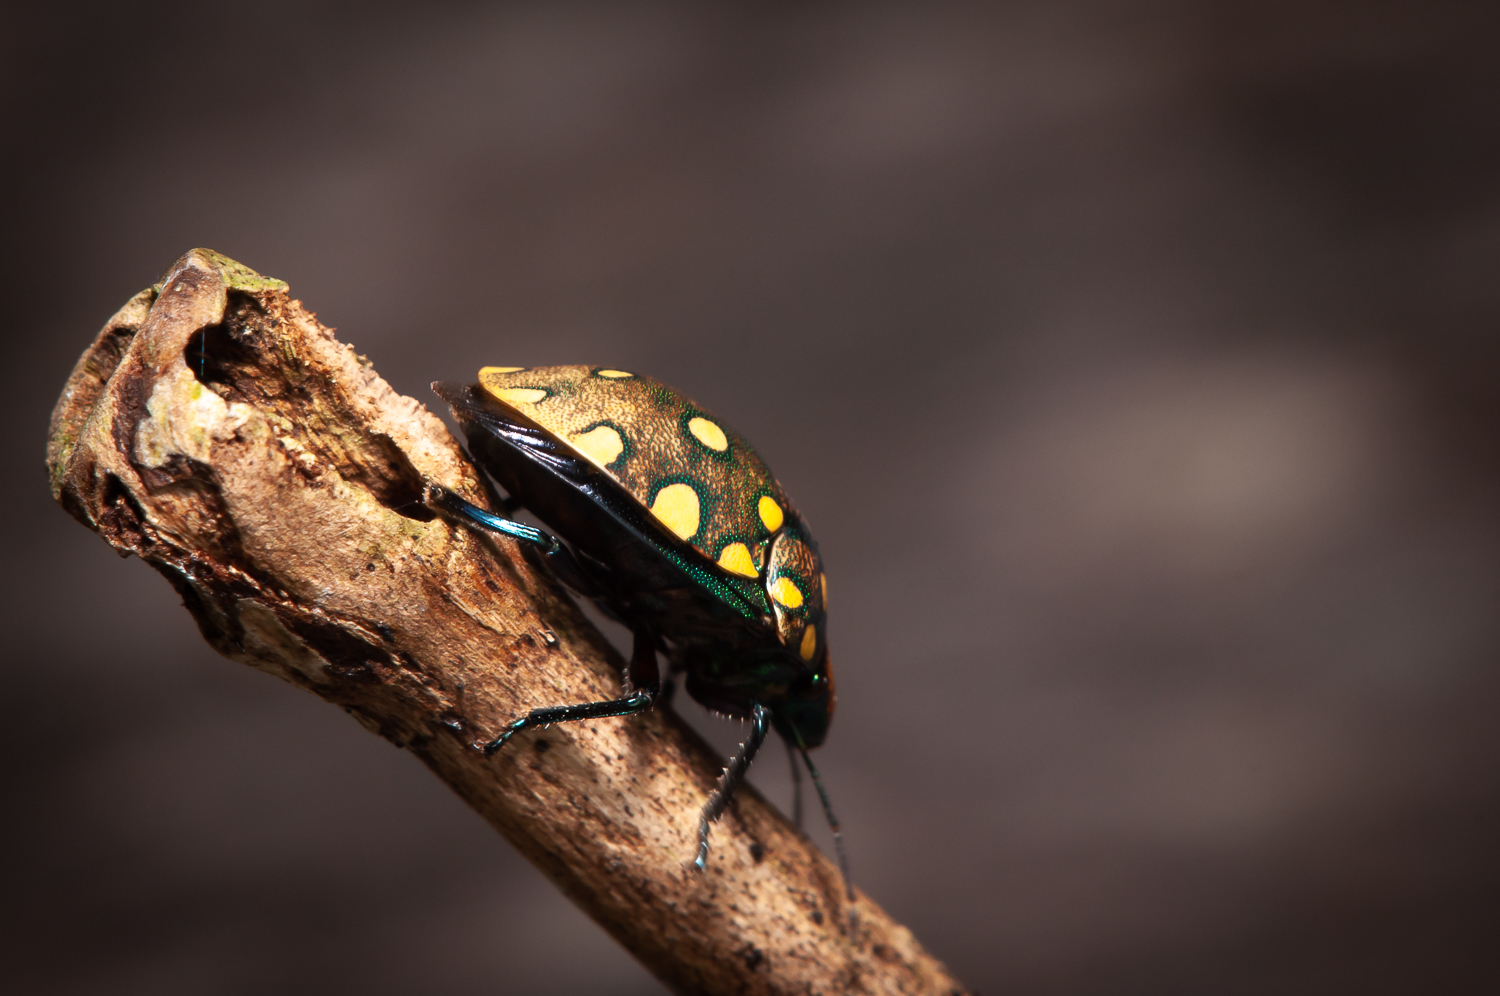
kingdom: Animalia
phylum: Arthropoda
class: Insecta
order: Hemiptera
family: Scutelleridae
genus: Pachycoris
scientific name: Pachycoris torridus
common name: Torrid jewel bug
